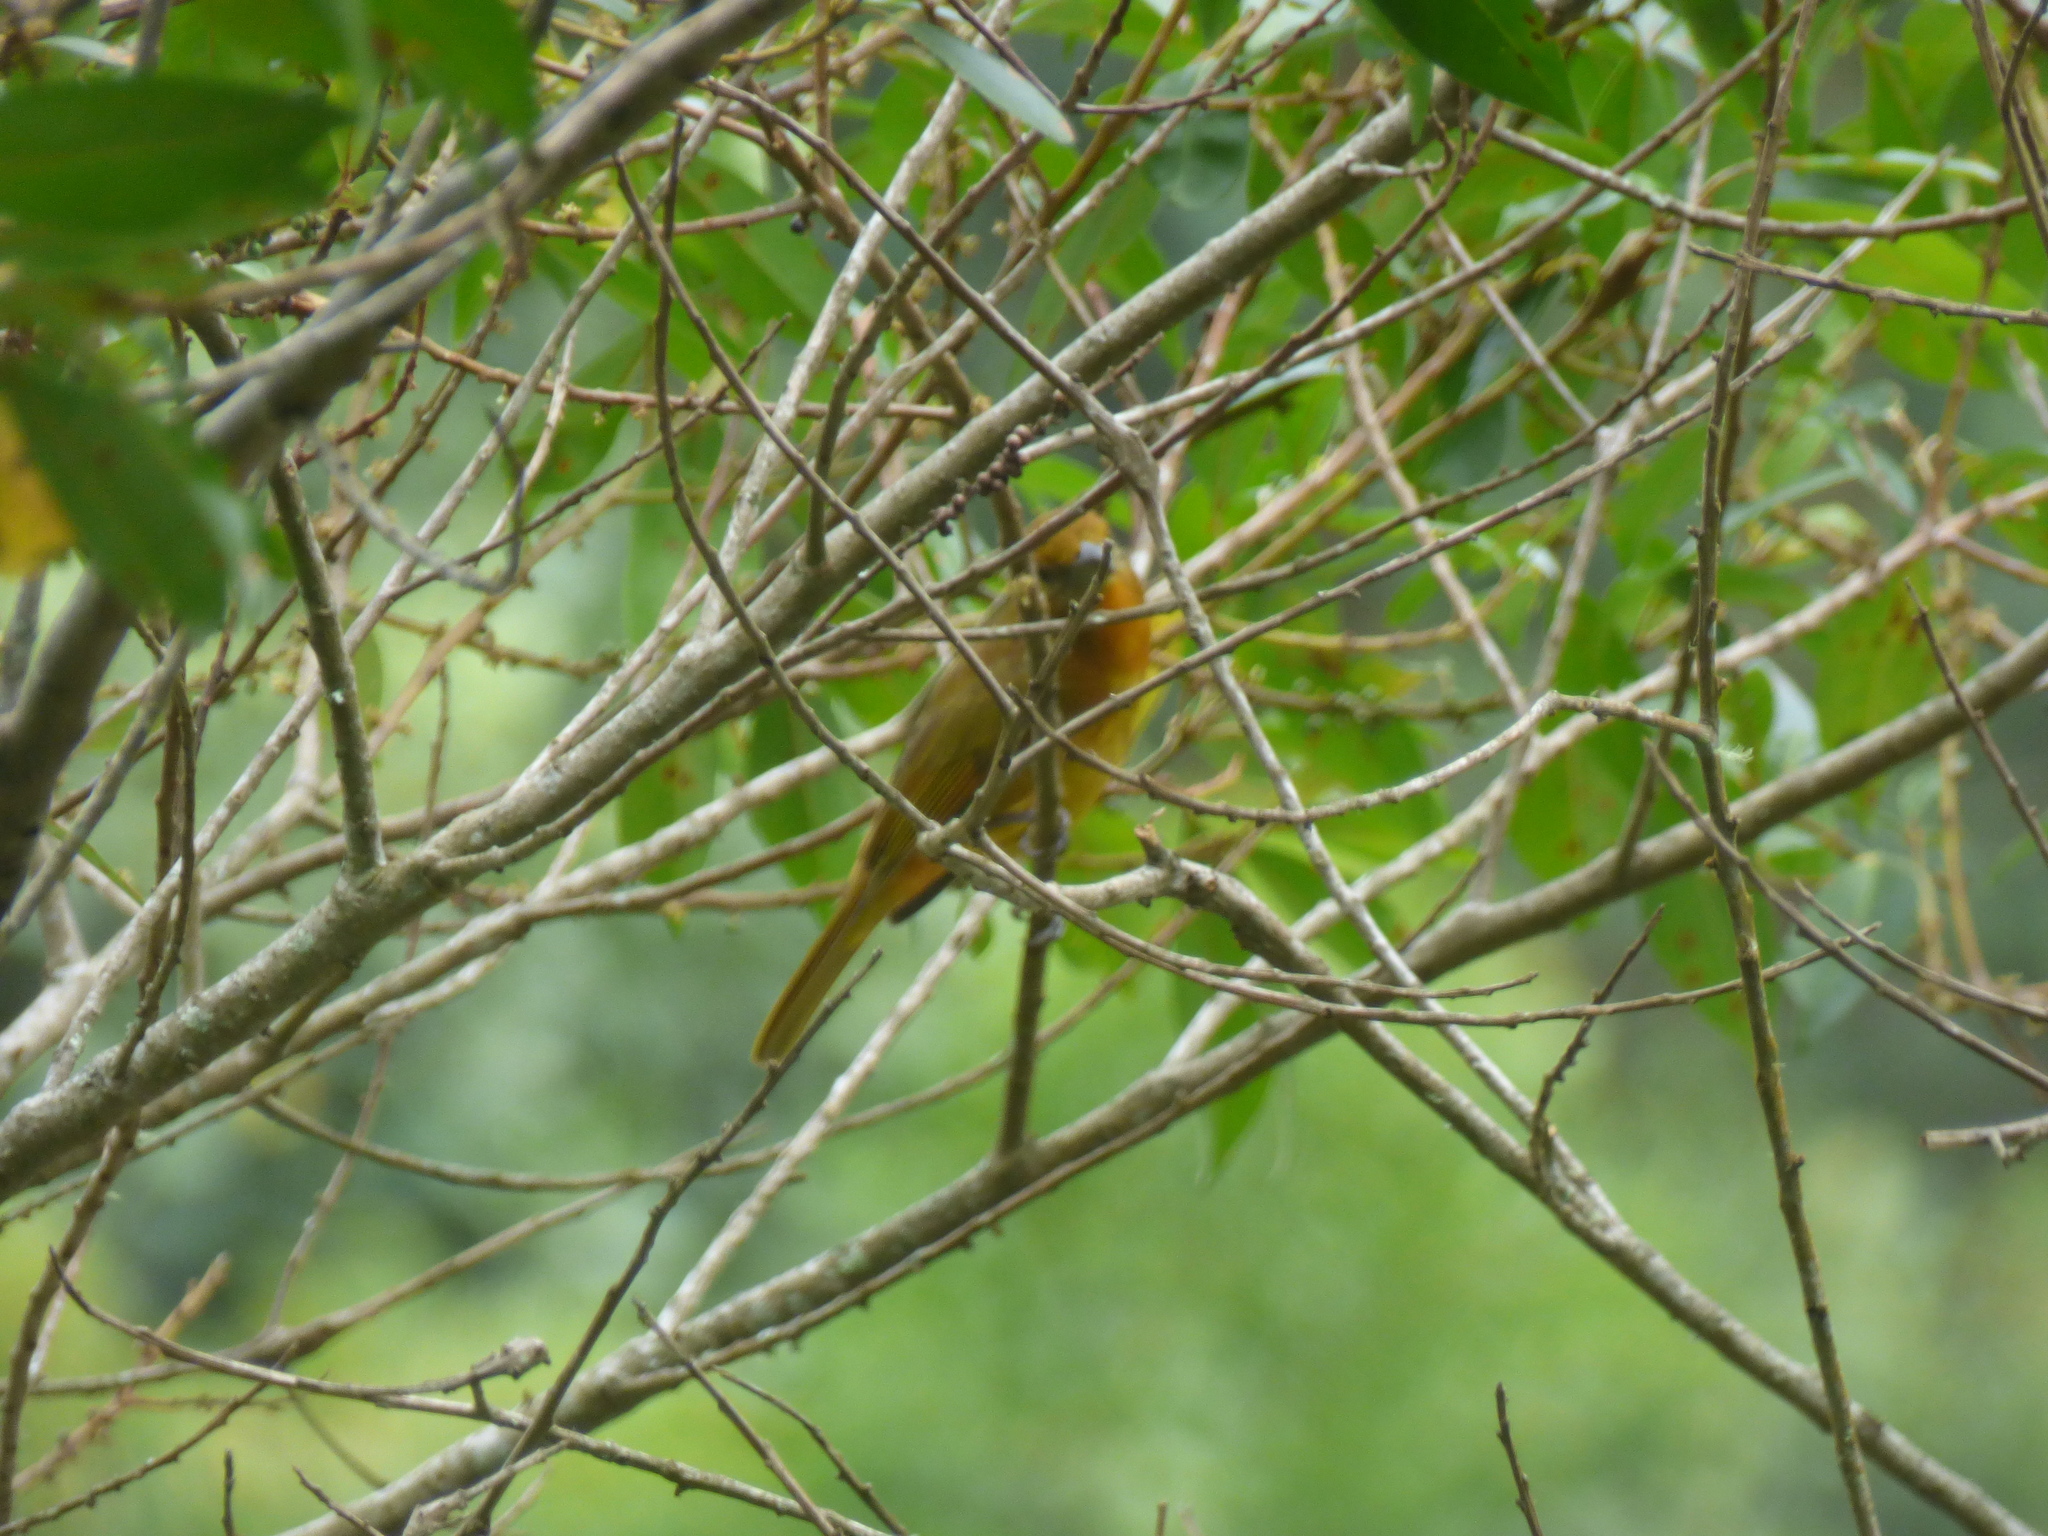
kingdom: Animalia
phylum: Chordata
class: Aves
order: Passeriformes
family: Cardinalidae
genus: Piranga
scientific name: Piranga flava
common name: Red tanager
